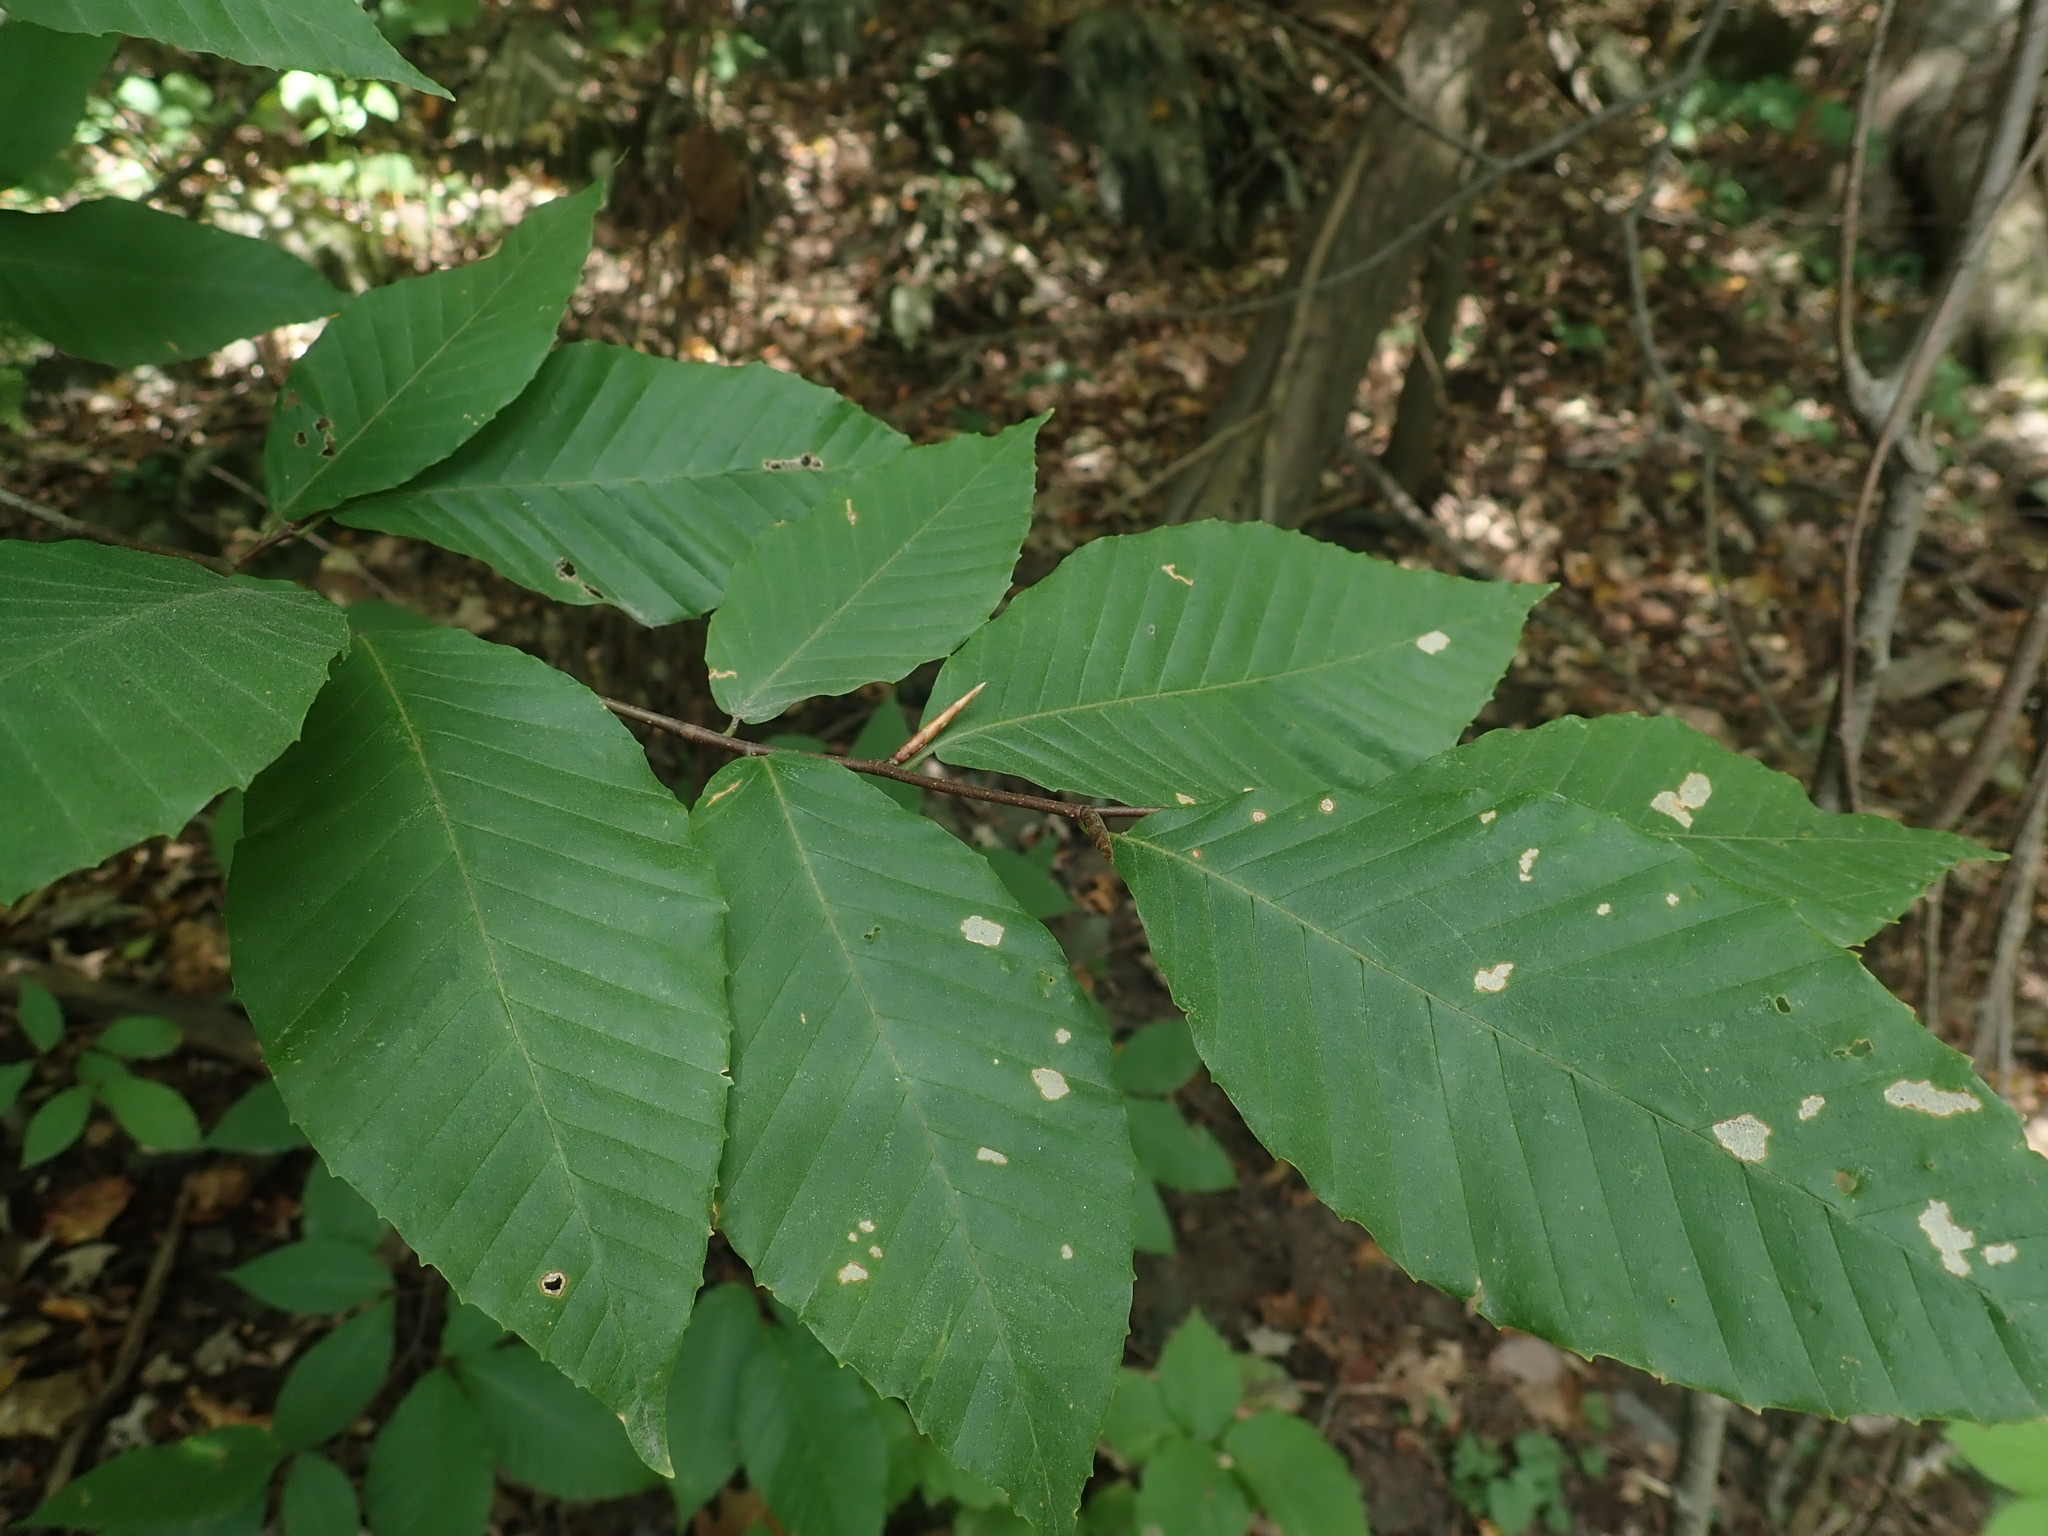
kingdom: Plantae
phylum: Tracheophyta
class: Magnoliopsida
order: Fagales
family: Fagaceae
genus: Fagus
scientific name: Fagus grandifolia
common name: American beech
